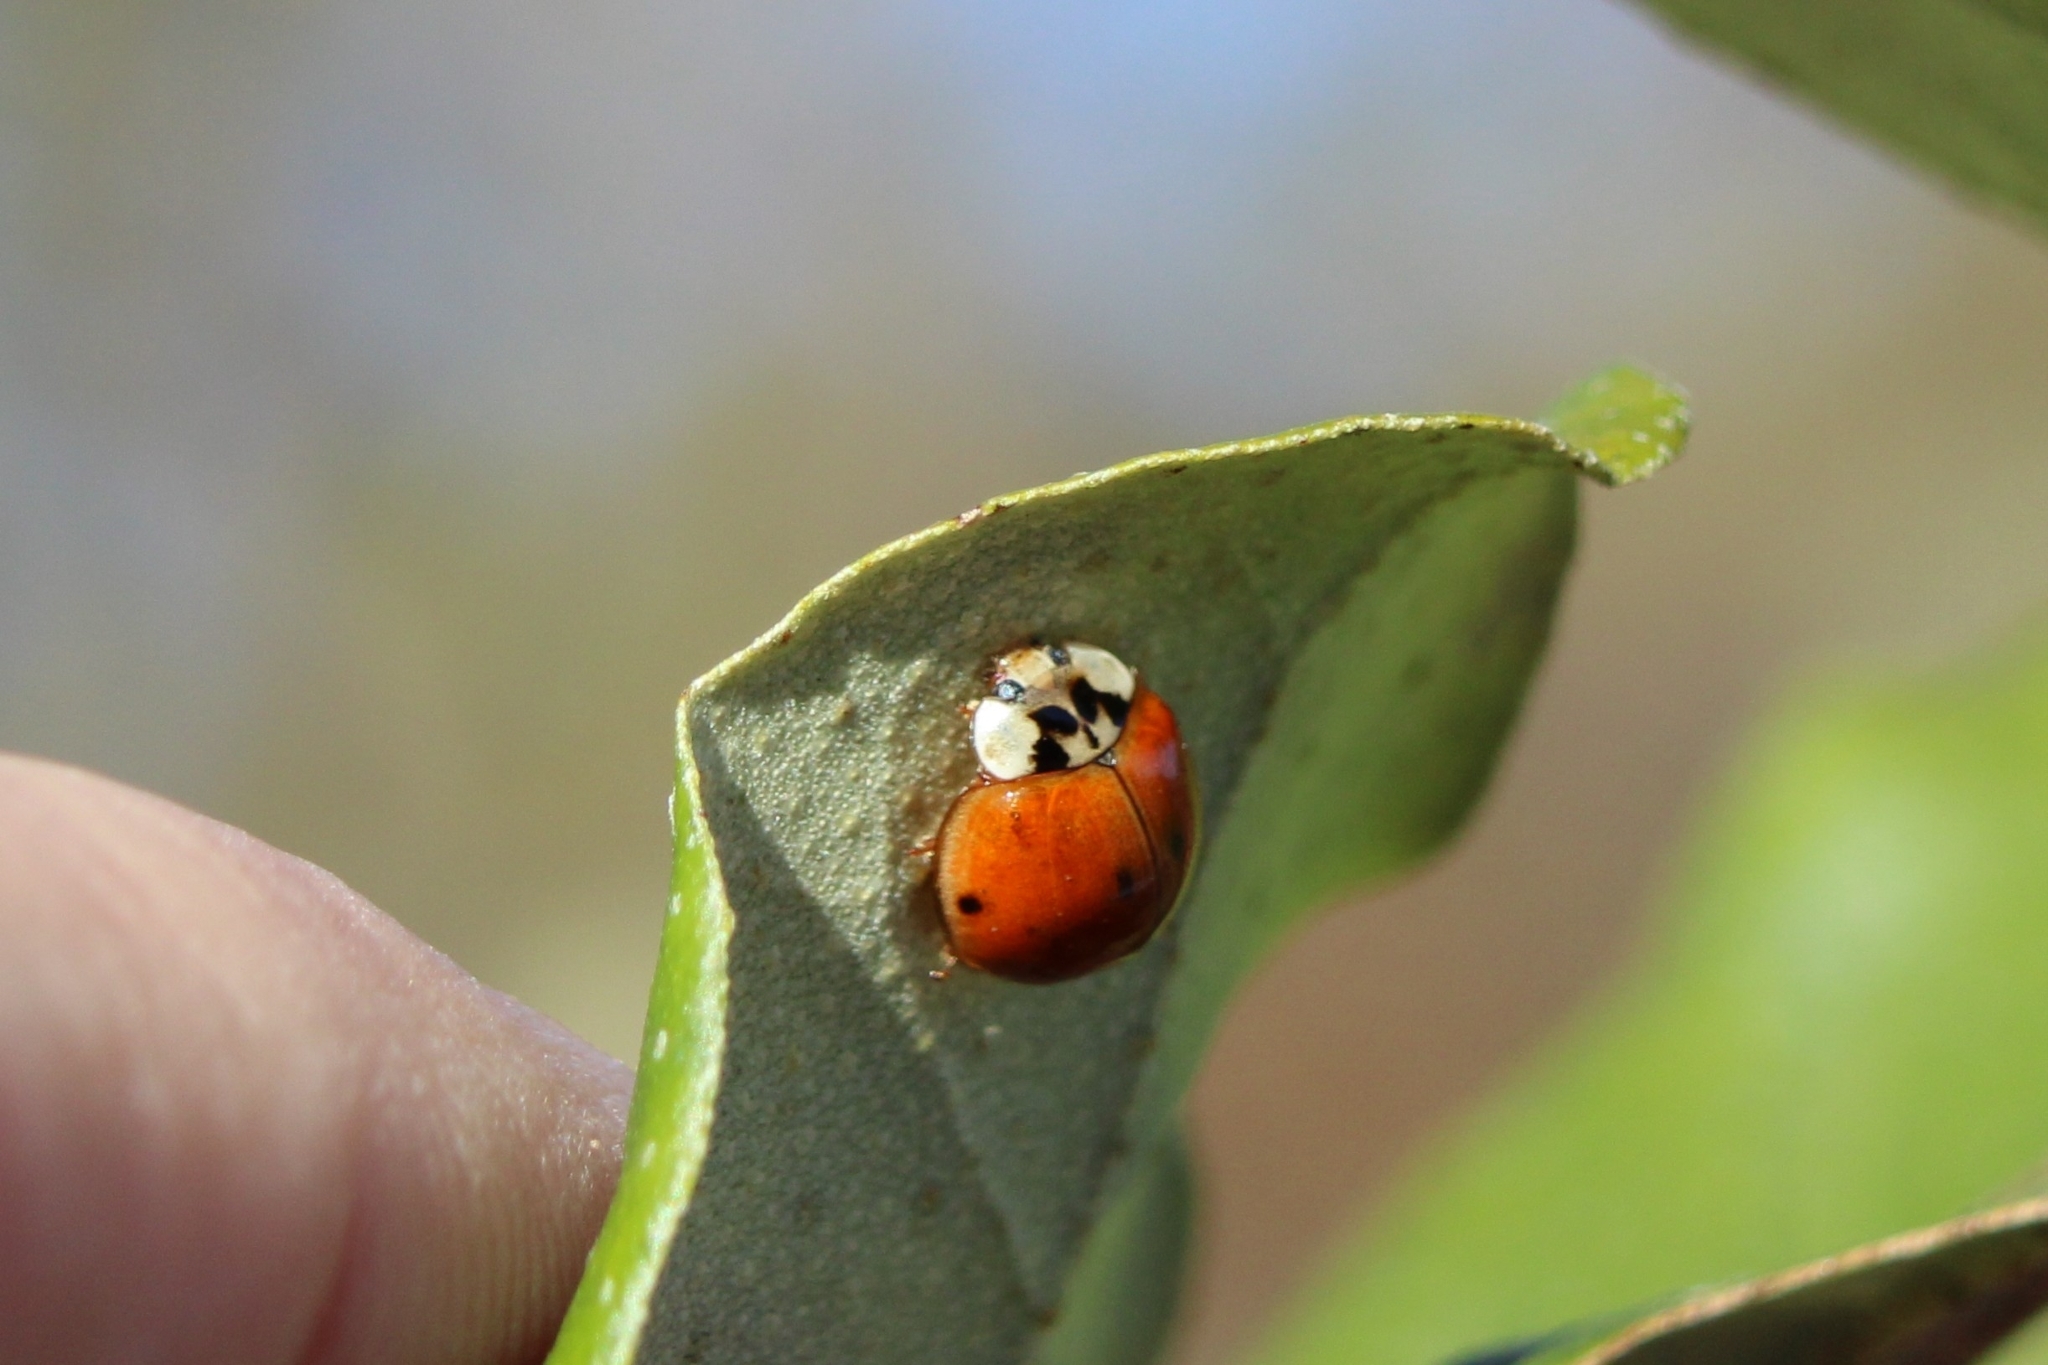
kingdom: Animalia
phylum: Arthropoda
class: Insecta
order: Coleoptera
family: Coccinellidae
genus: Harmonia
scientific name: Harmonia axyridis
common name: Harlequin ladybird
